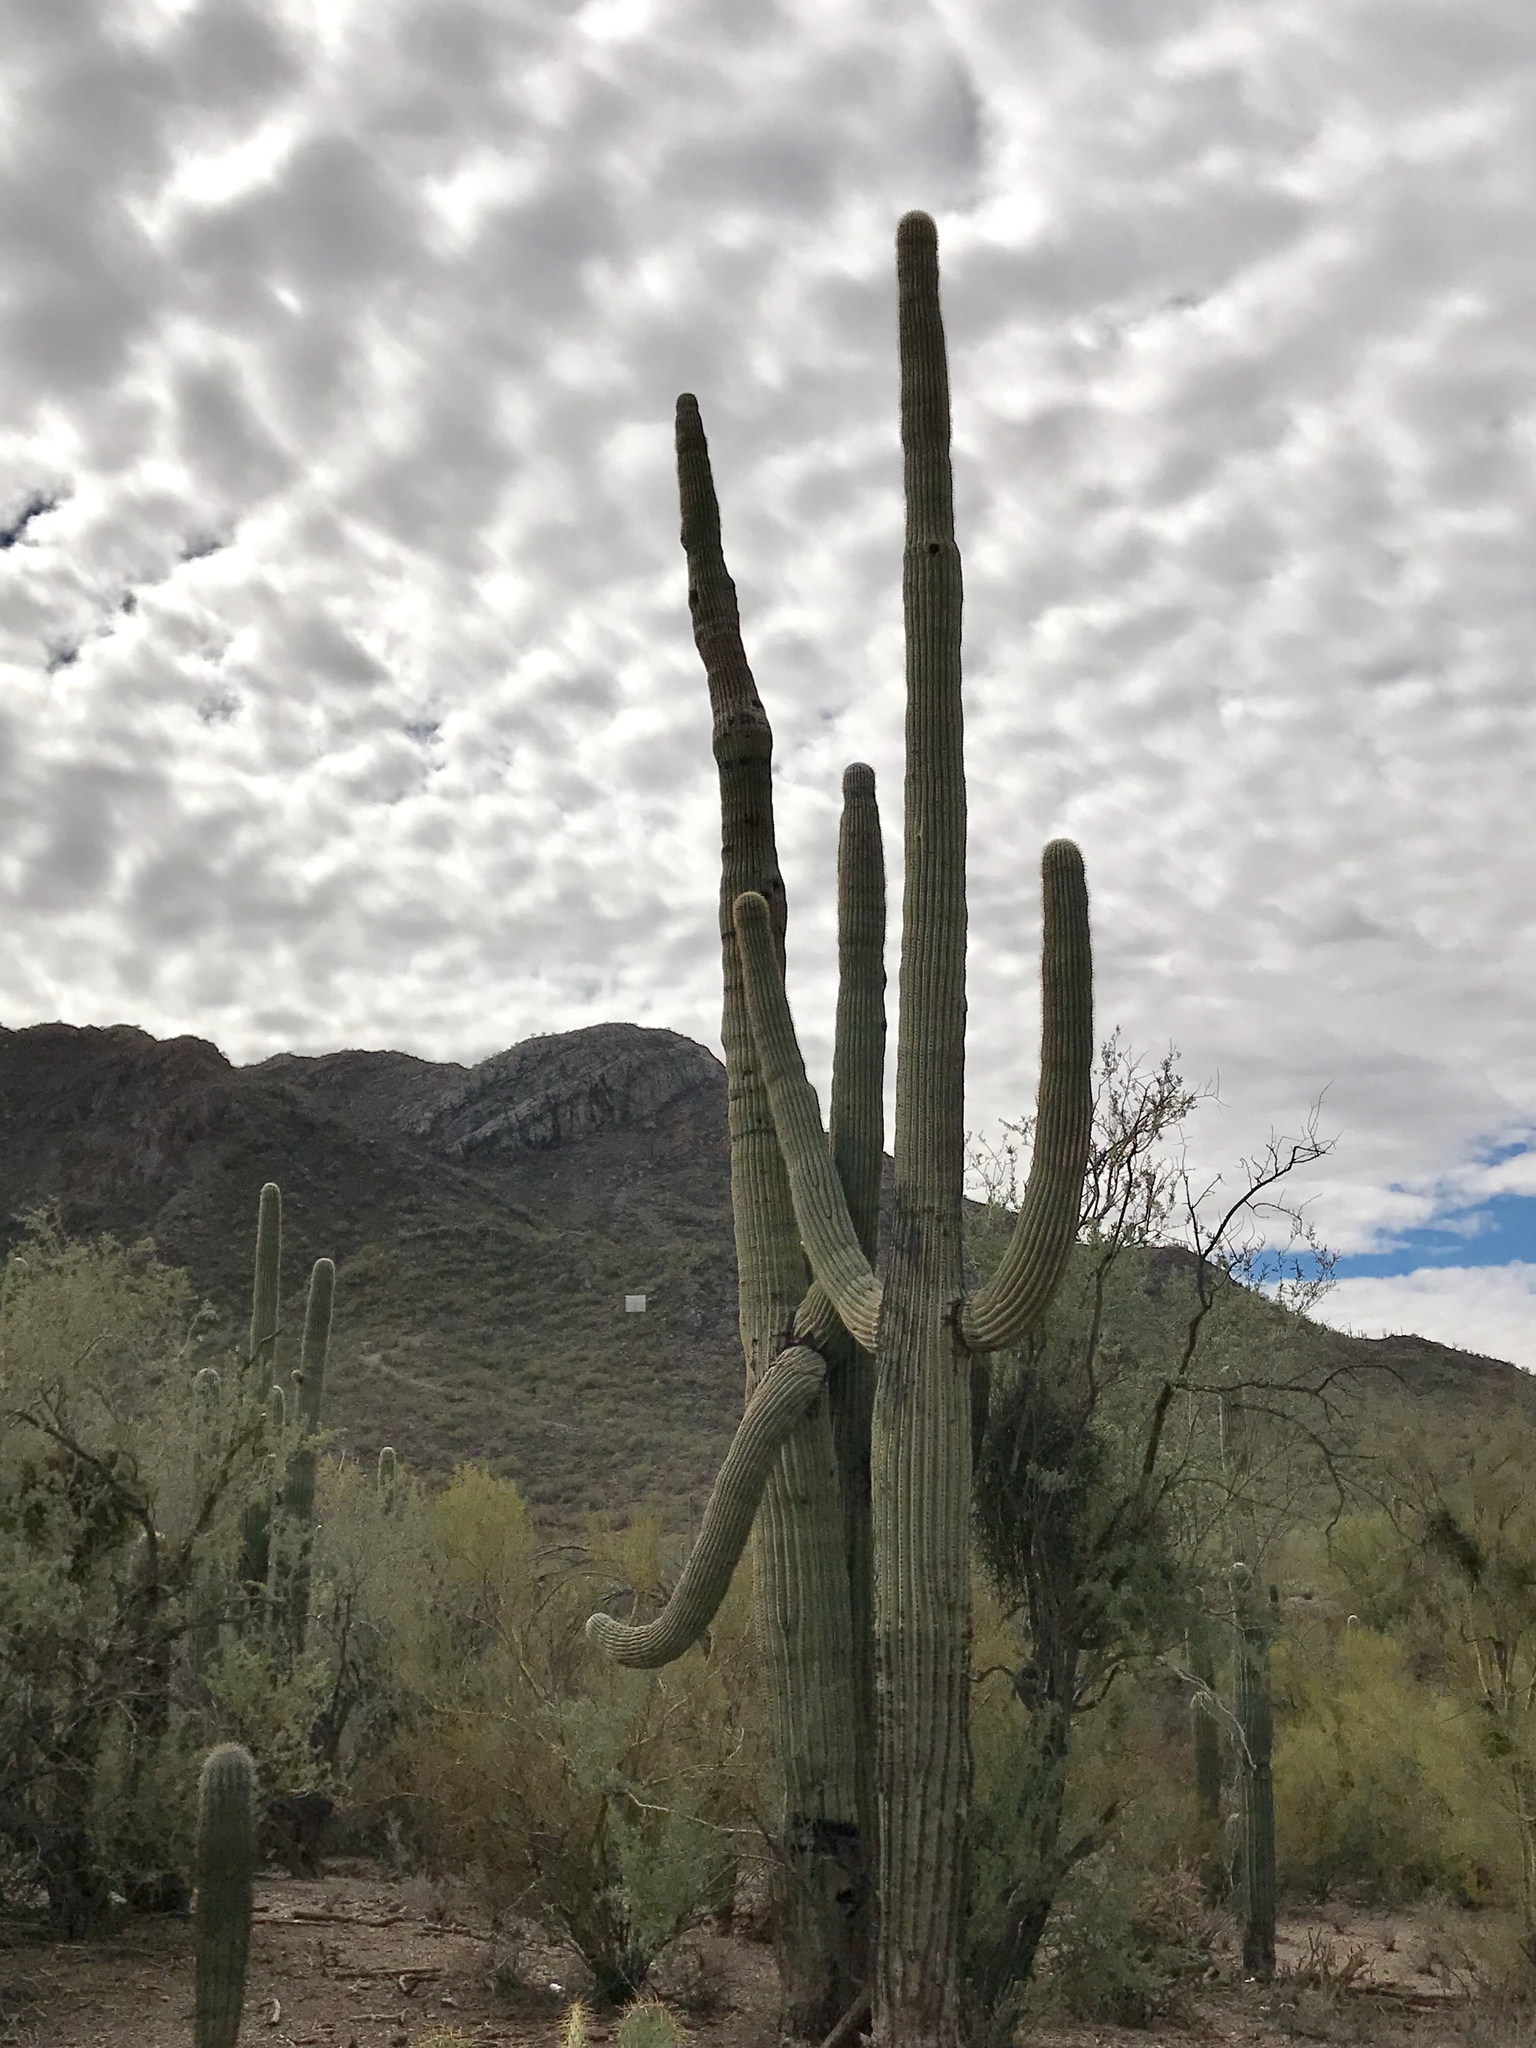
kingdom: Plantae
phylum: Tracheophyta
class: Magnoliopsida
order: Caryophyllales
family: Cactaceae
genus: Carnegiea
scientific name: Carnegiea gigantea
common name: Saguaro
